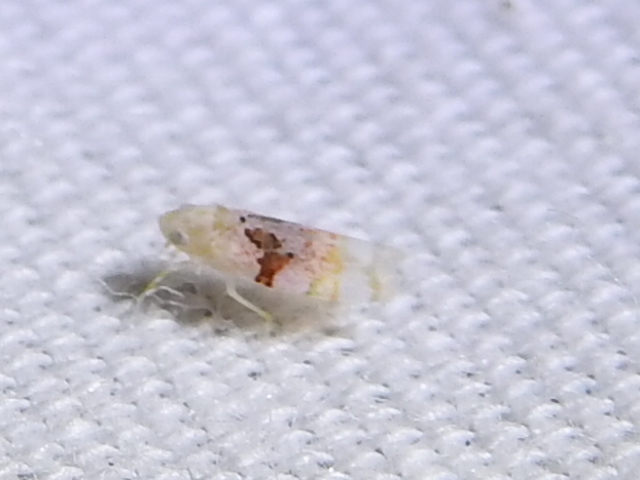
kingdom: Animalia
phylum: Arthropoda
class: Insecta
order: Hemiptera
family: Cicadellidae
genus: Hymetta
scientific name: Hymetta balteata
